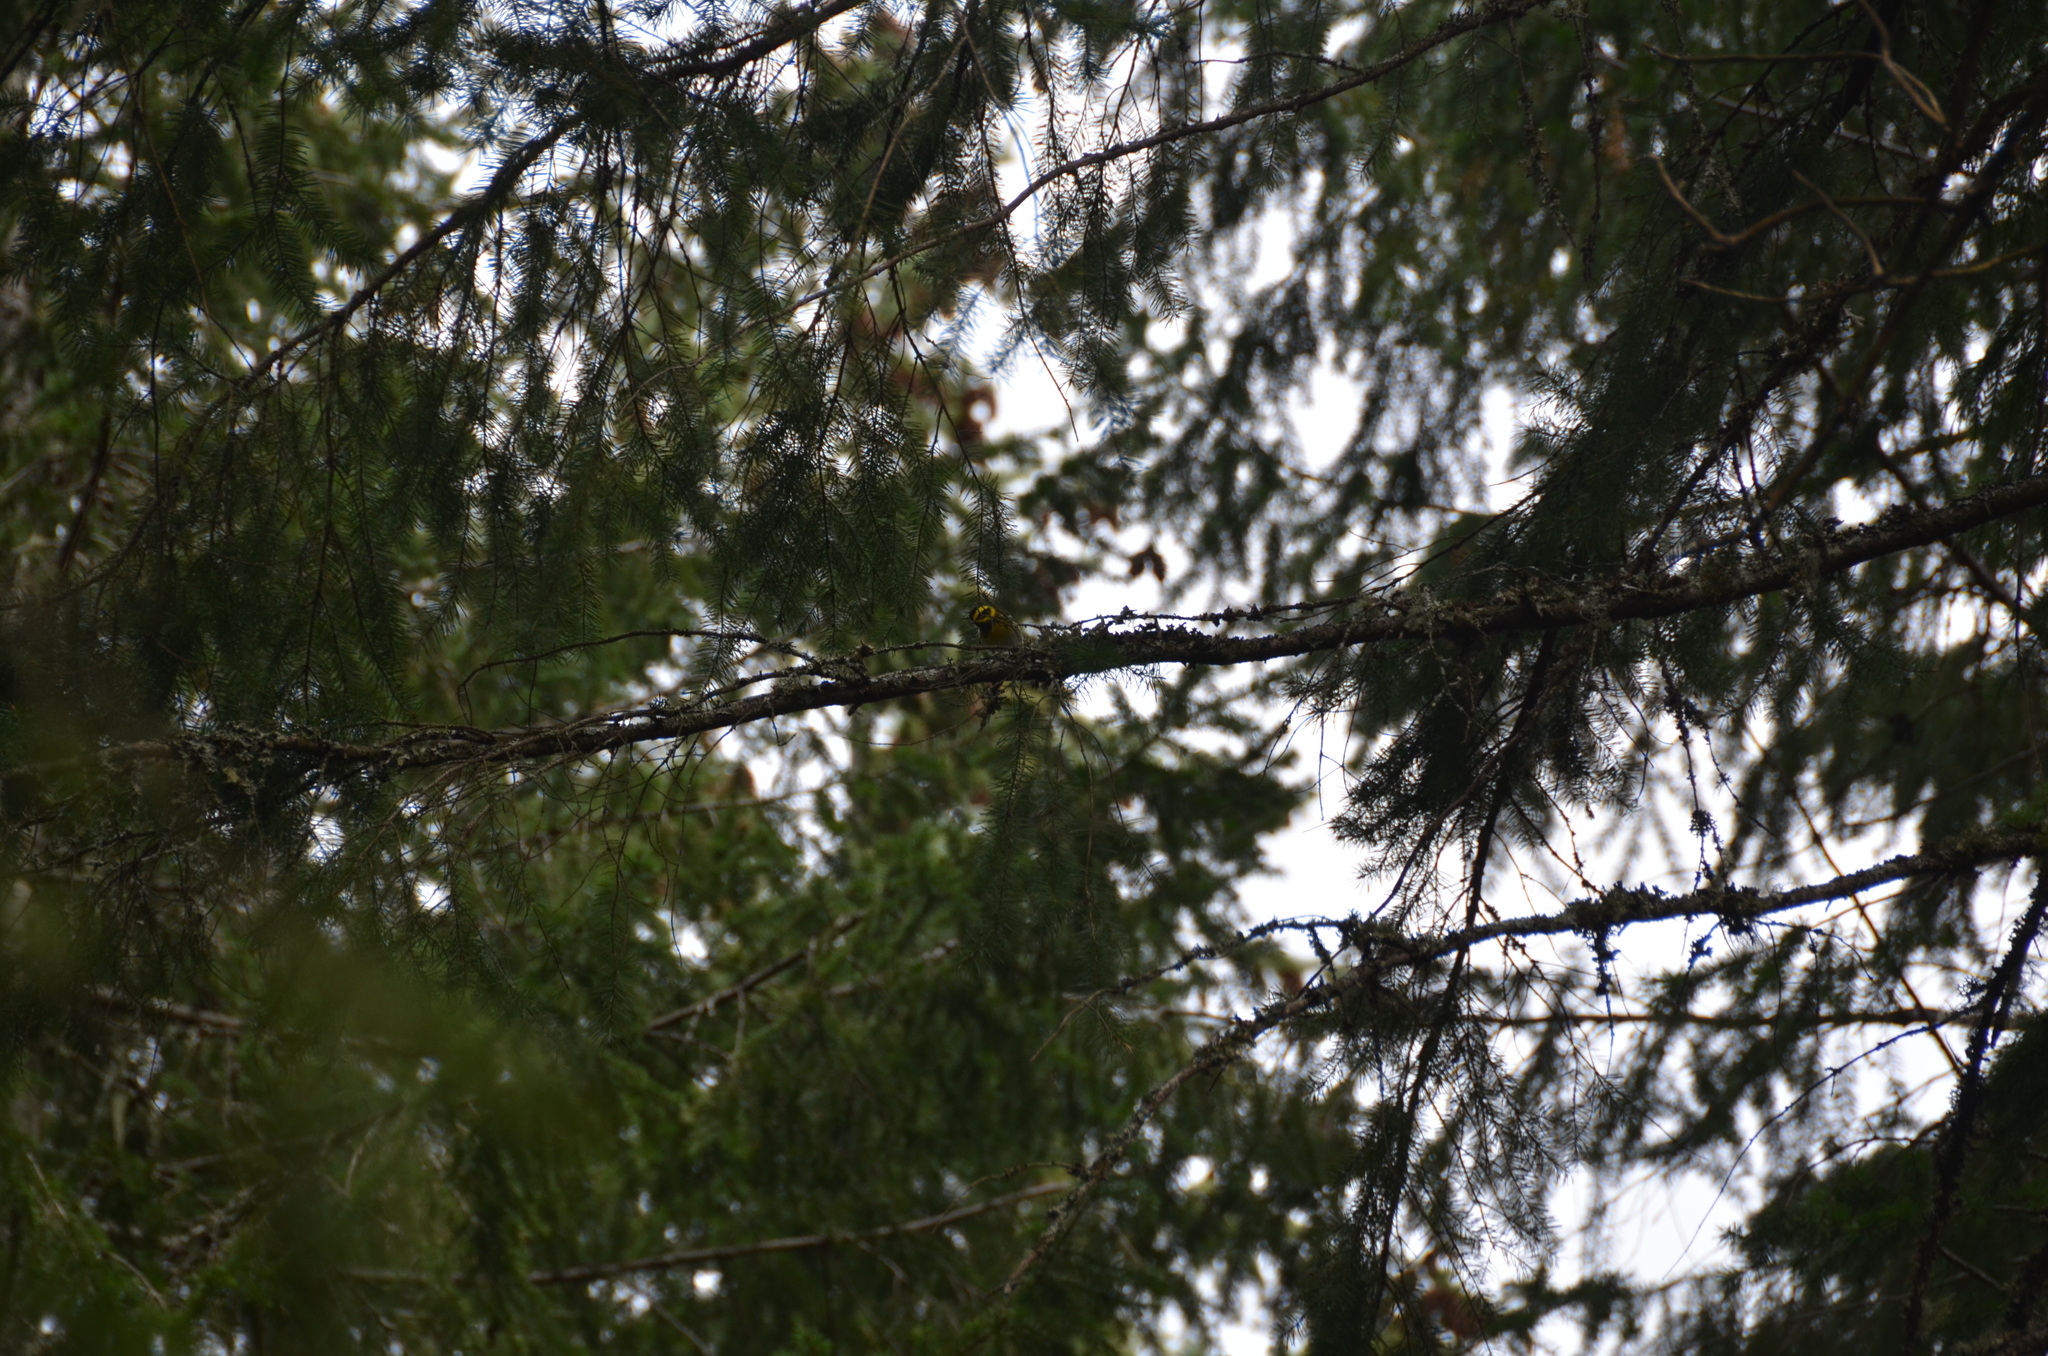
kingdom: Animalia
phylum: Chordata
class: Aves
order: Passeriformes
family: Parulidae
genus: Setophaga
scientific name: Setophaga townsendi
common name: Townsend's warbler
